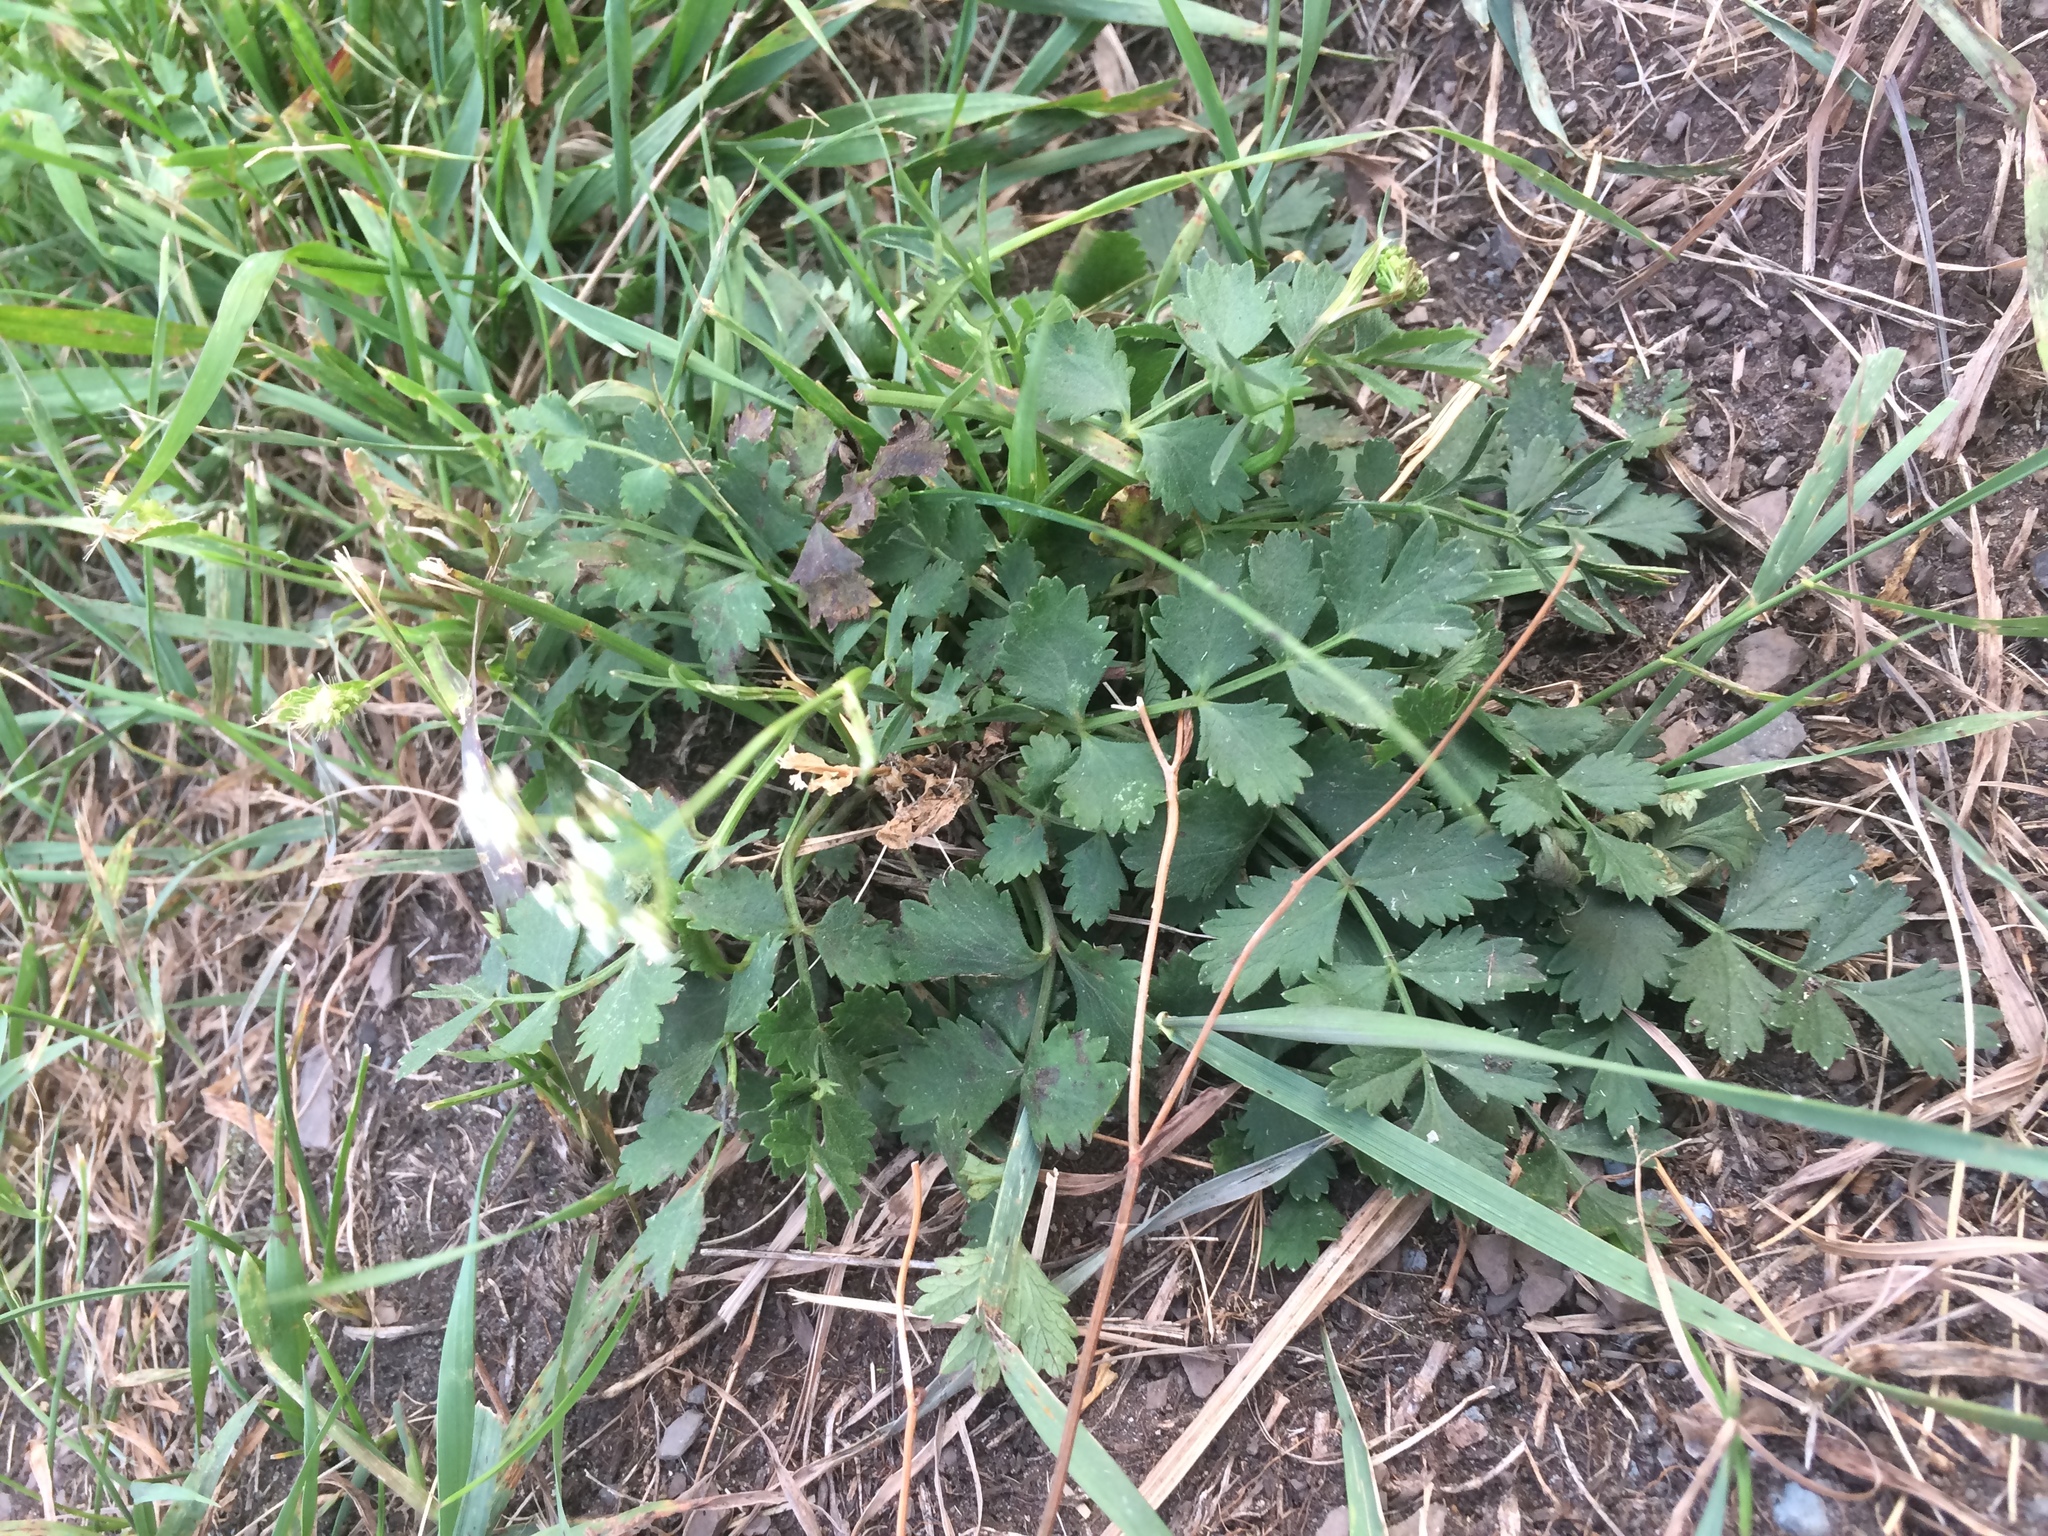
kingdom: Plantae
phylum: Tracheophyta
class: Magnoliopsida
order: Apiales
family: Apiaceae
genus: Pimpinella
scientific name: Pimpinella saxifraga
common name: Burnet-saxifrage
